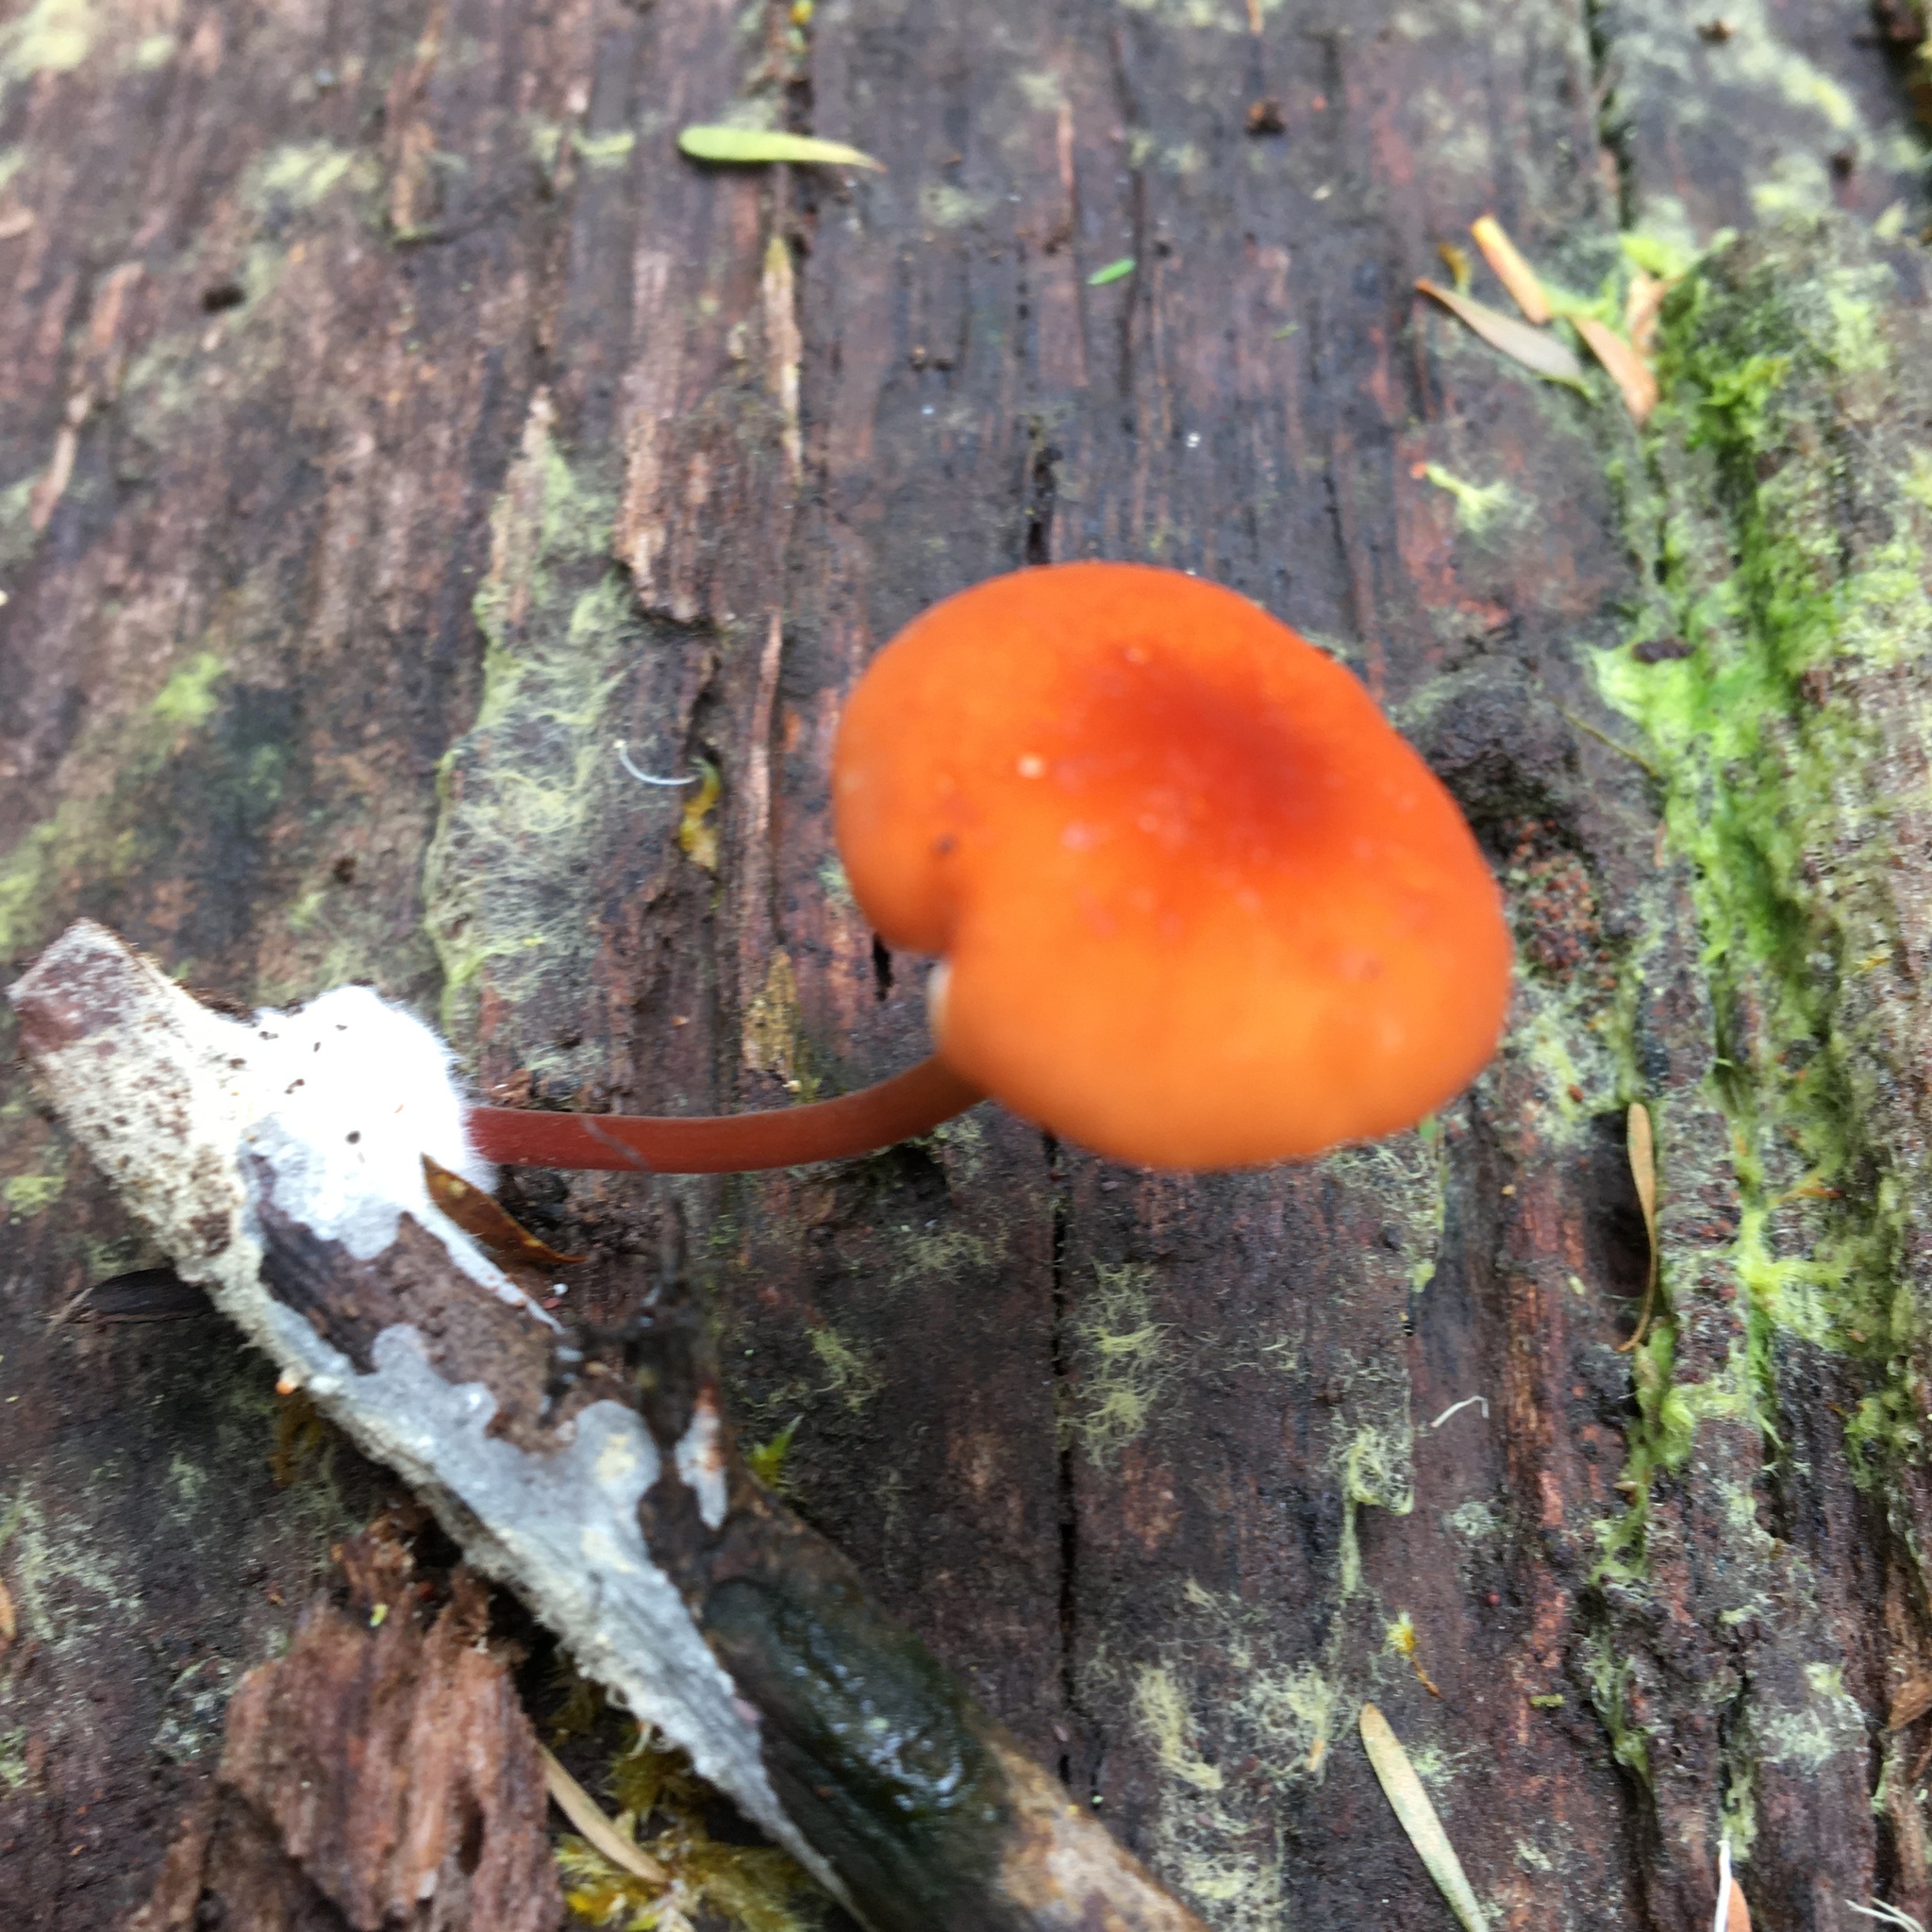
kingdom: Fungi
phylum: Basidiomycota
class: Agaricomycetes
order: Agaricales
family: Marasmiaceae
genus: Marasmius
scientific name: Marasmius elegans
